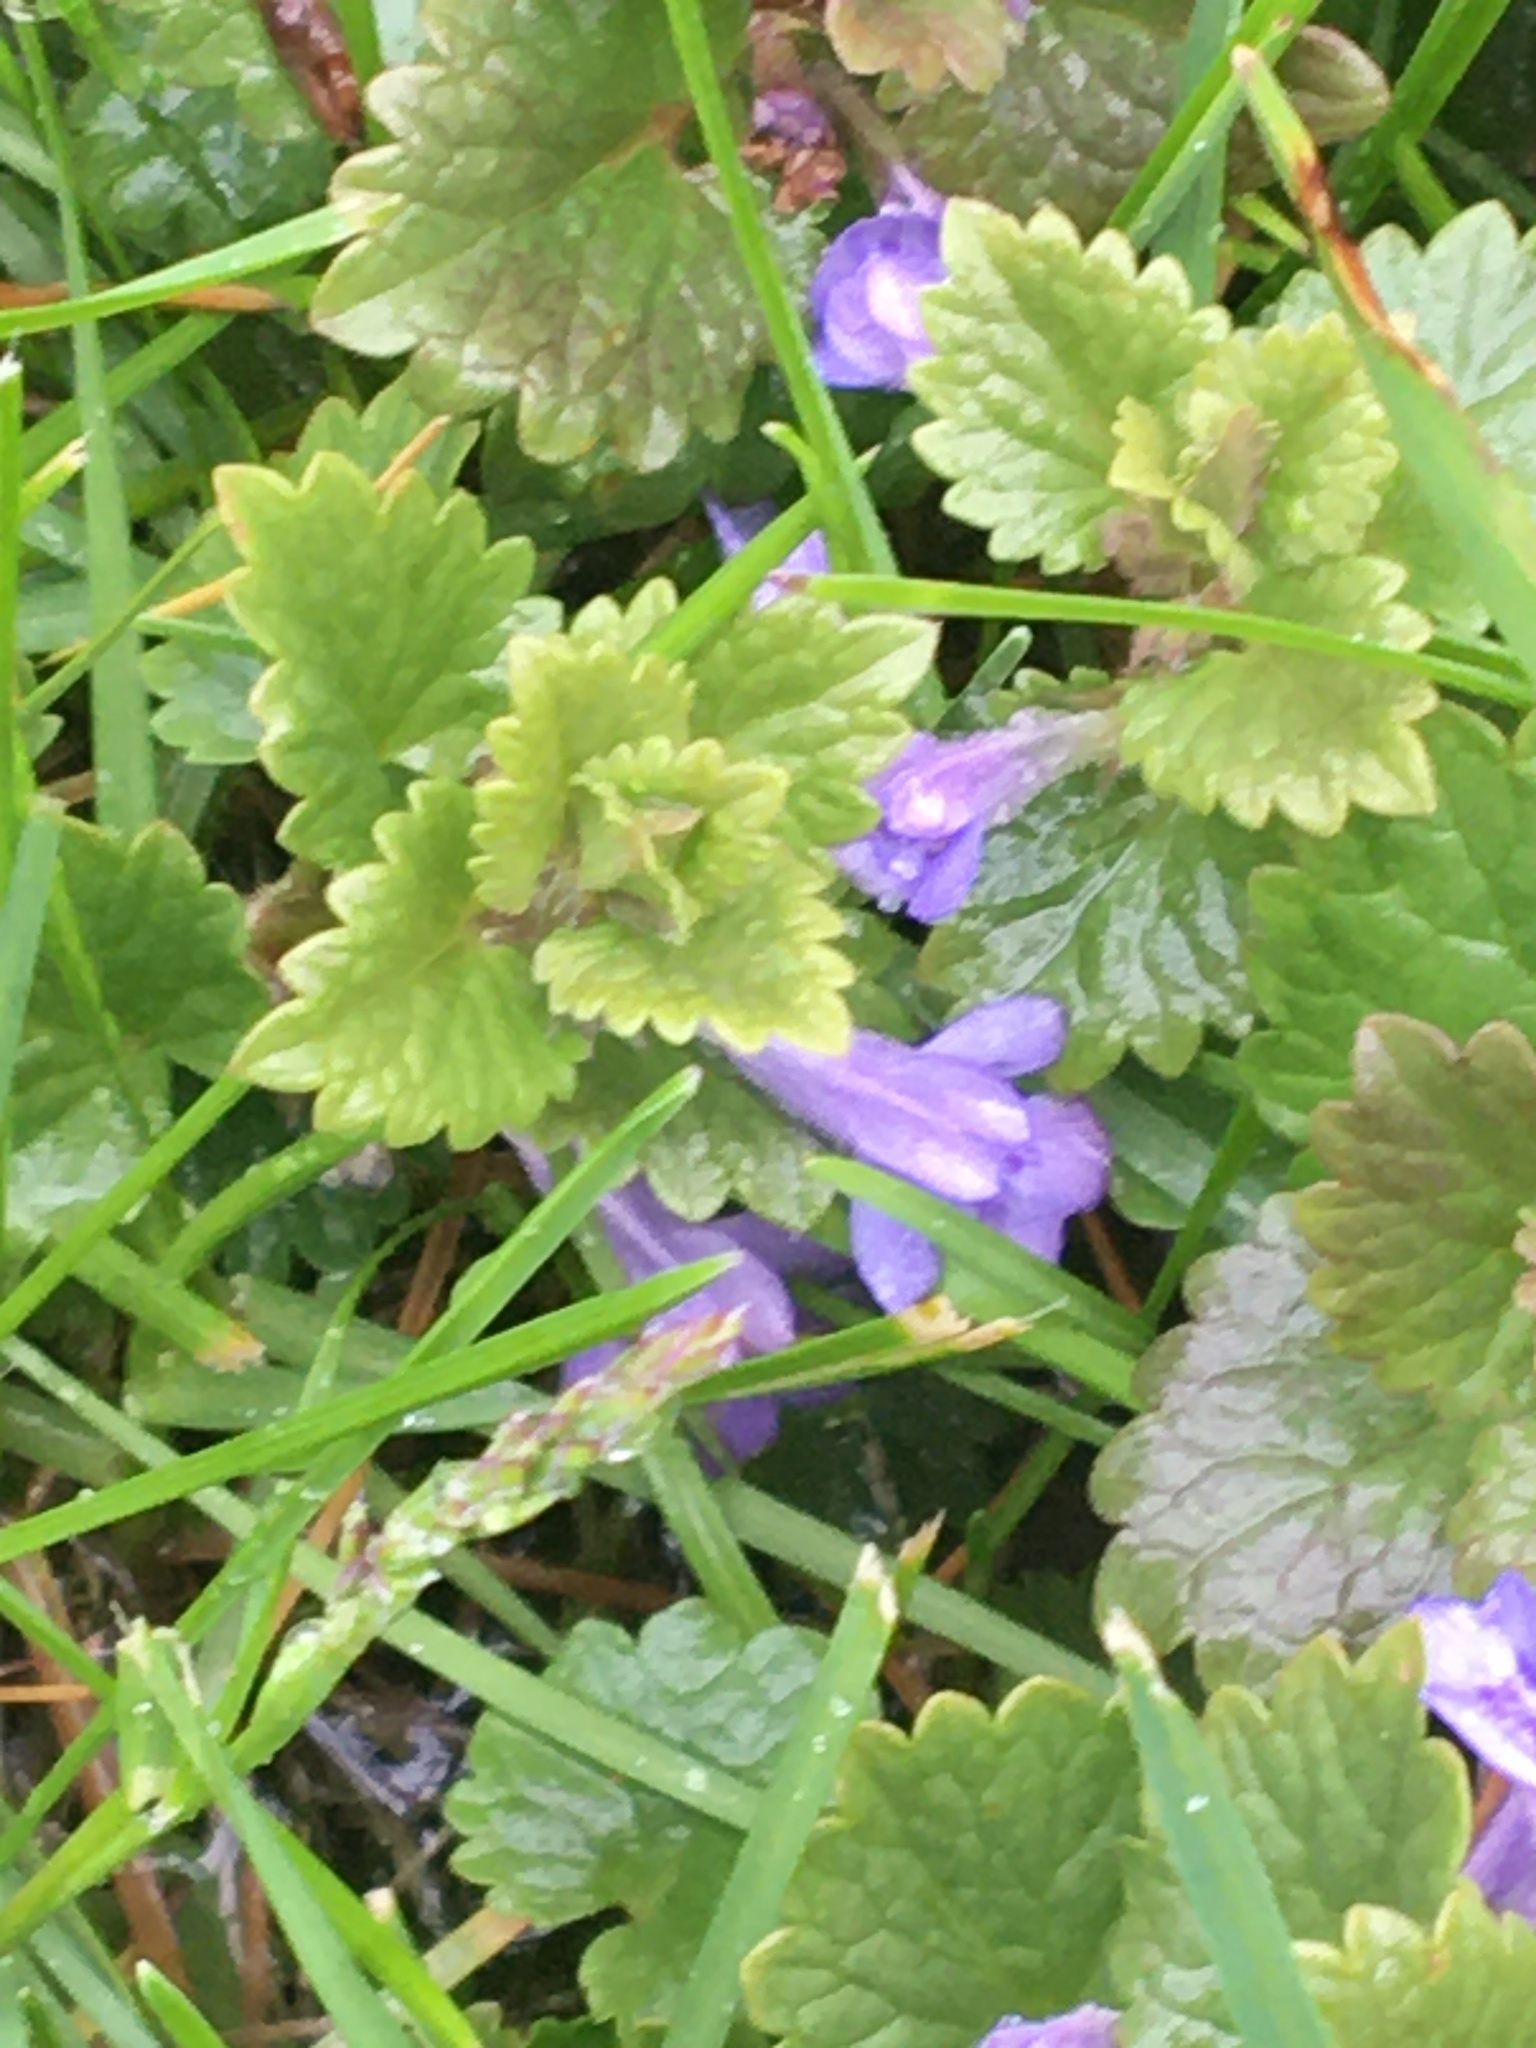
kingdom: Plantae
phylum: Tracheophyta
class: Magnoliopsida
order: Lamiales
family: Lamiaceae
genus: Glechoma
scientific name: Glechoma hederacea
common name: Ground ivy
